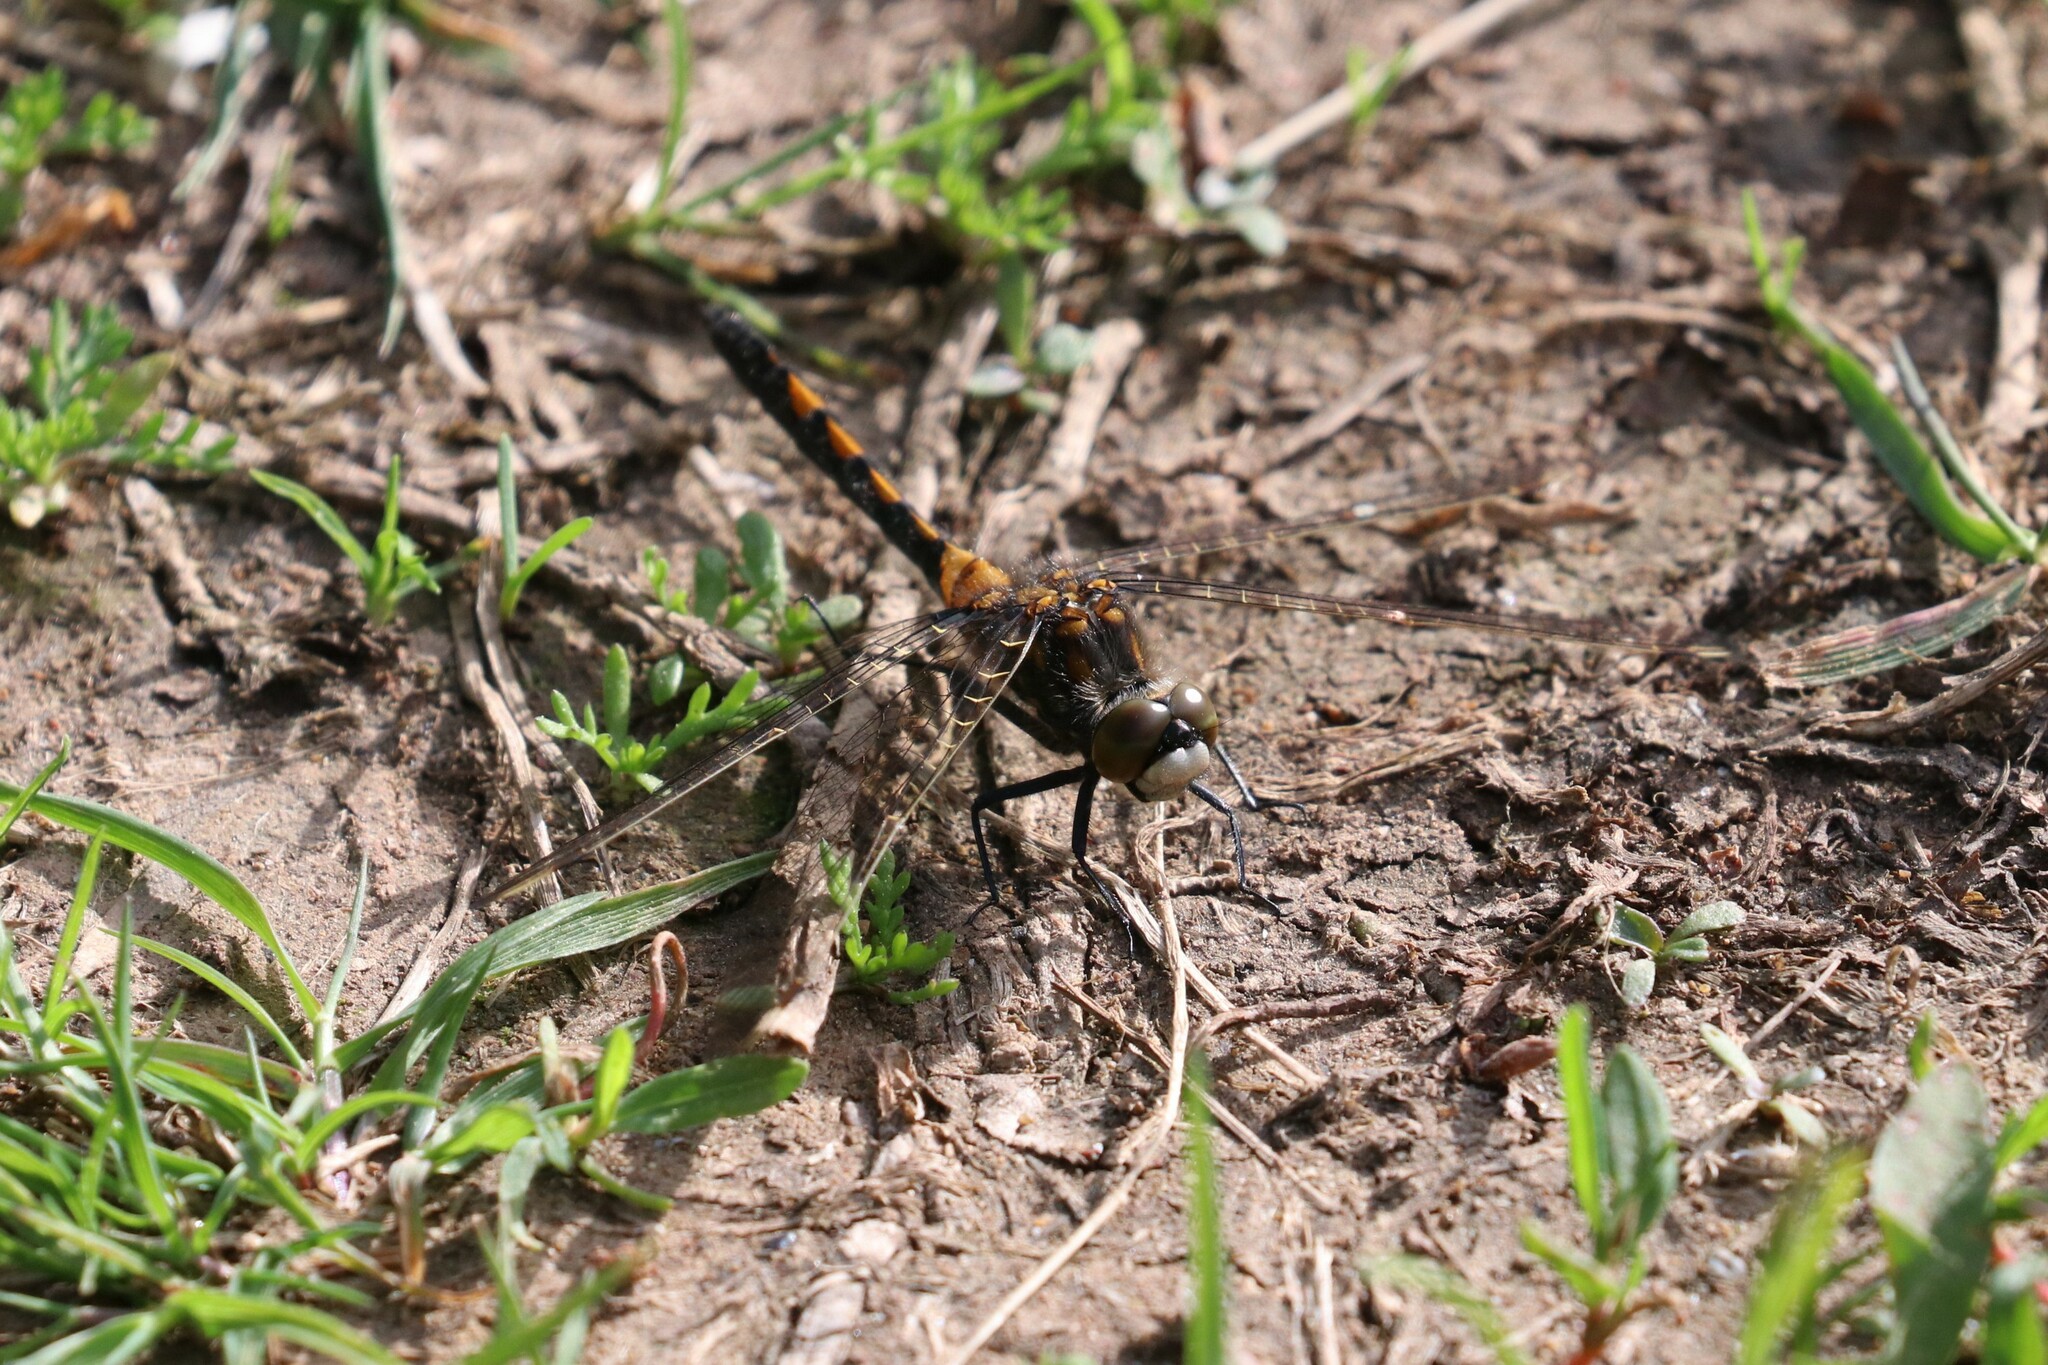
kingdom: Animalia
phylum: Arthropoda
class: Insecta
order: Odonata
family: Libellulidae
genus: Leucorrhinia
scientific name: Leucorrhinia rubicunda
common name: Ruby whiteface
